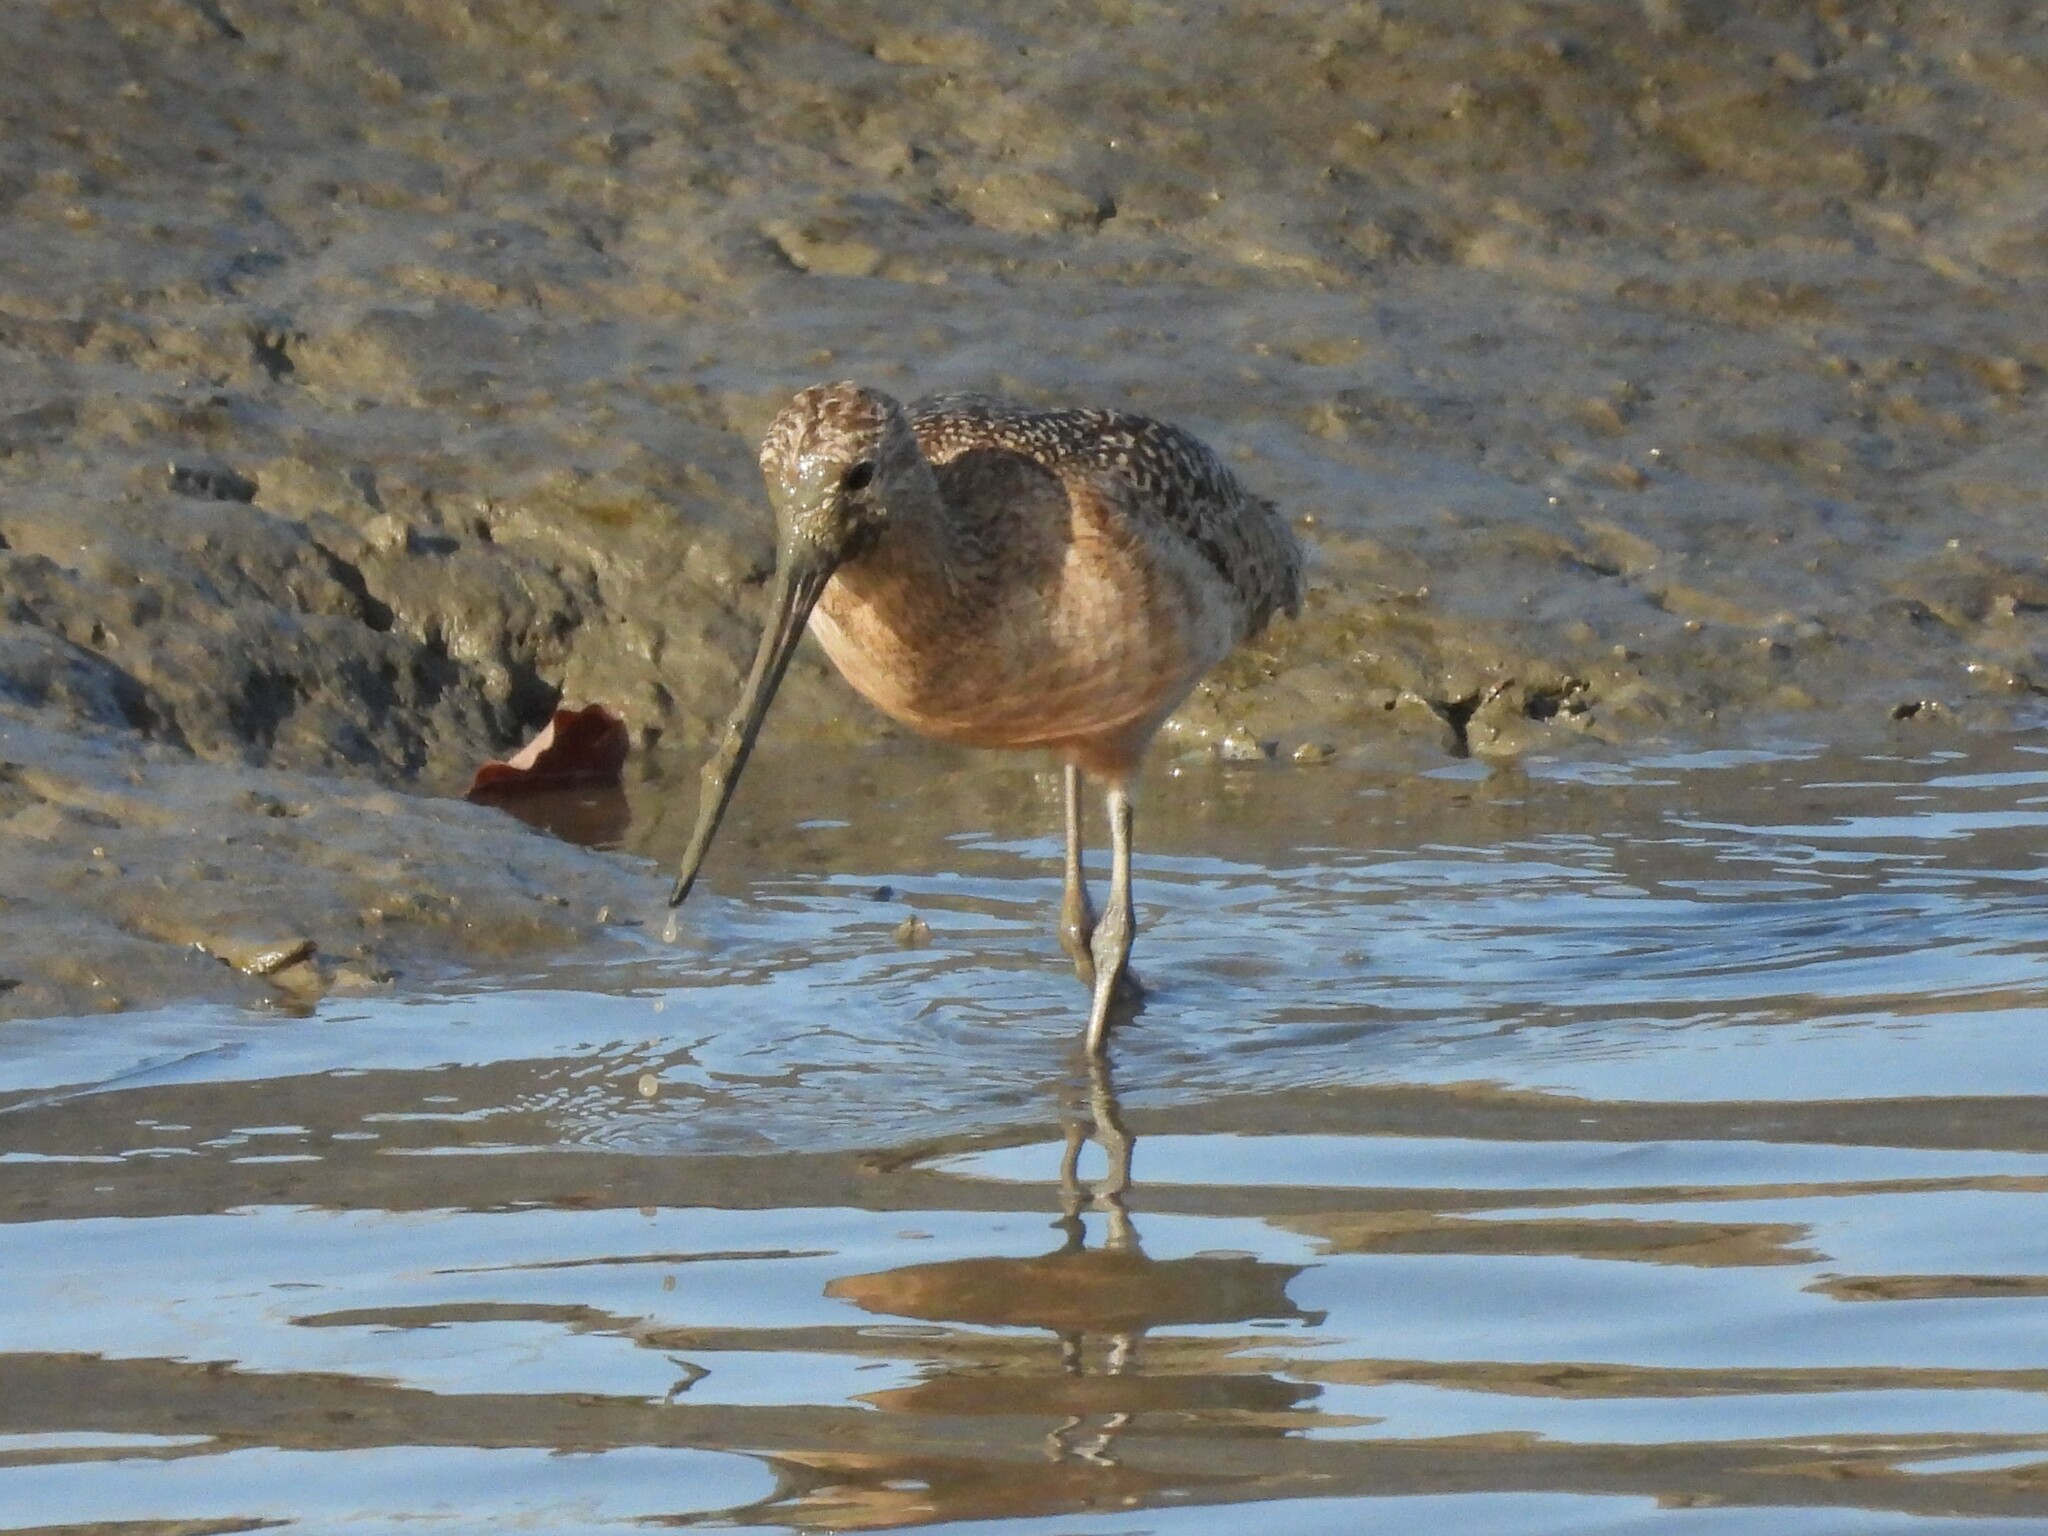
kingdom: Animalia
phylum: Chordata
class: Aves
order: Charadriiformes
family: Scolopacidae
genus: Limosa
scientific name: Limosa fedoa
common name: Marbled godwit
